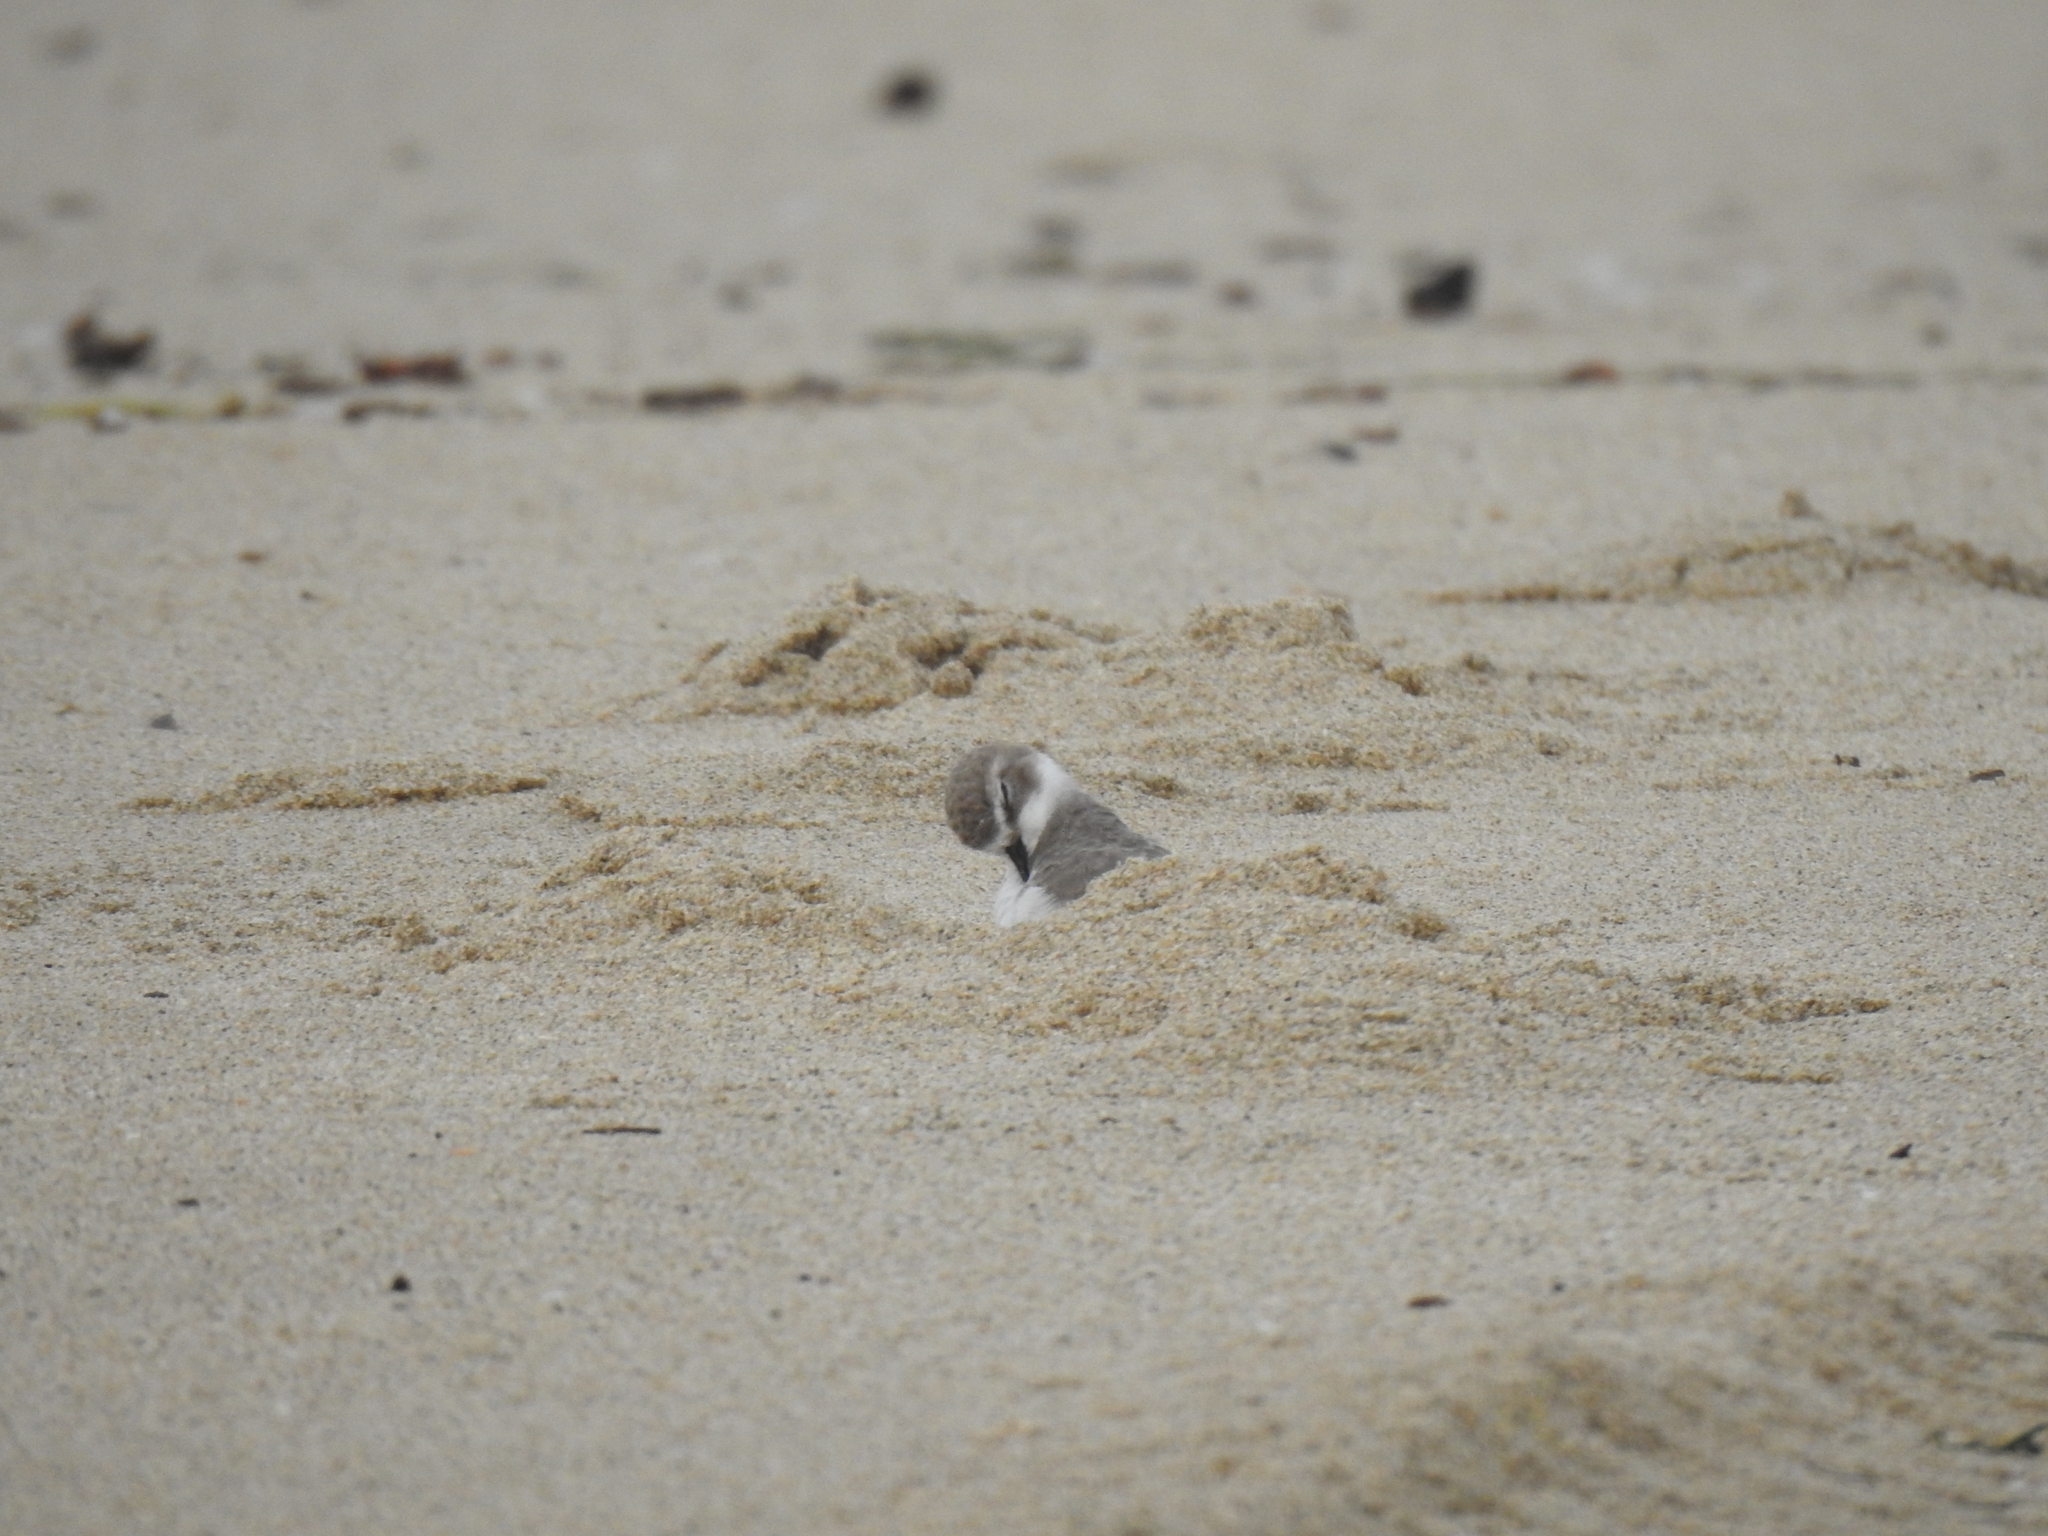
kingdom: Animalia
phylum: Chordata
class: Aves
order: Charadriiformes
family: Charadriidae
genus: Anarhynchus
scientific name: Anarhynchus
